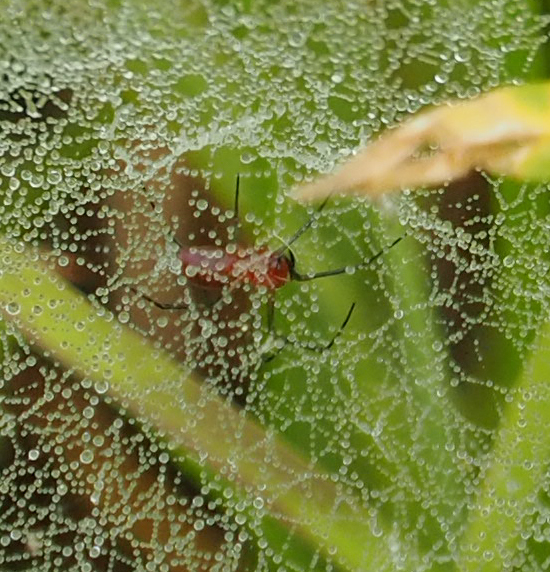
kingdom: Animalia
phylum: Arthropoda
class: Arachnida
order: Araneae
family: Linyphiidae
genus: Florinda
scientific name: Florinda coccinea
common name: Black-tailed red sheetweaver
